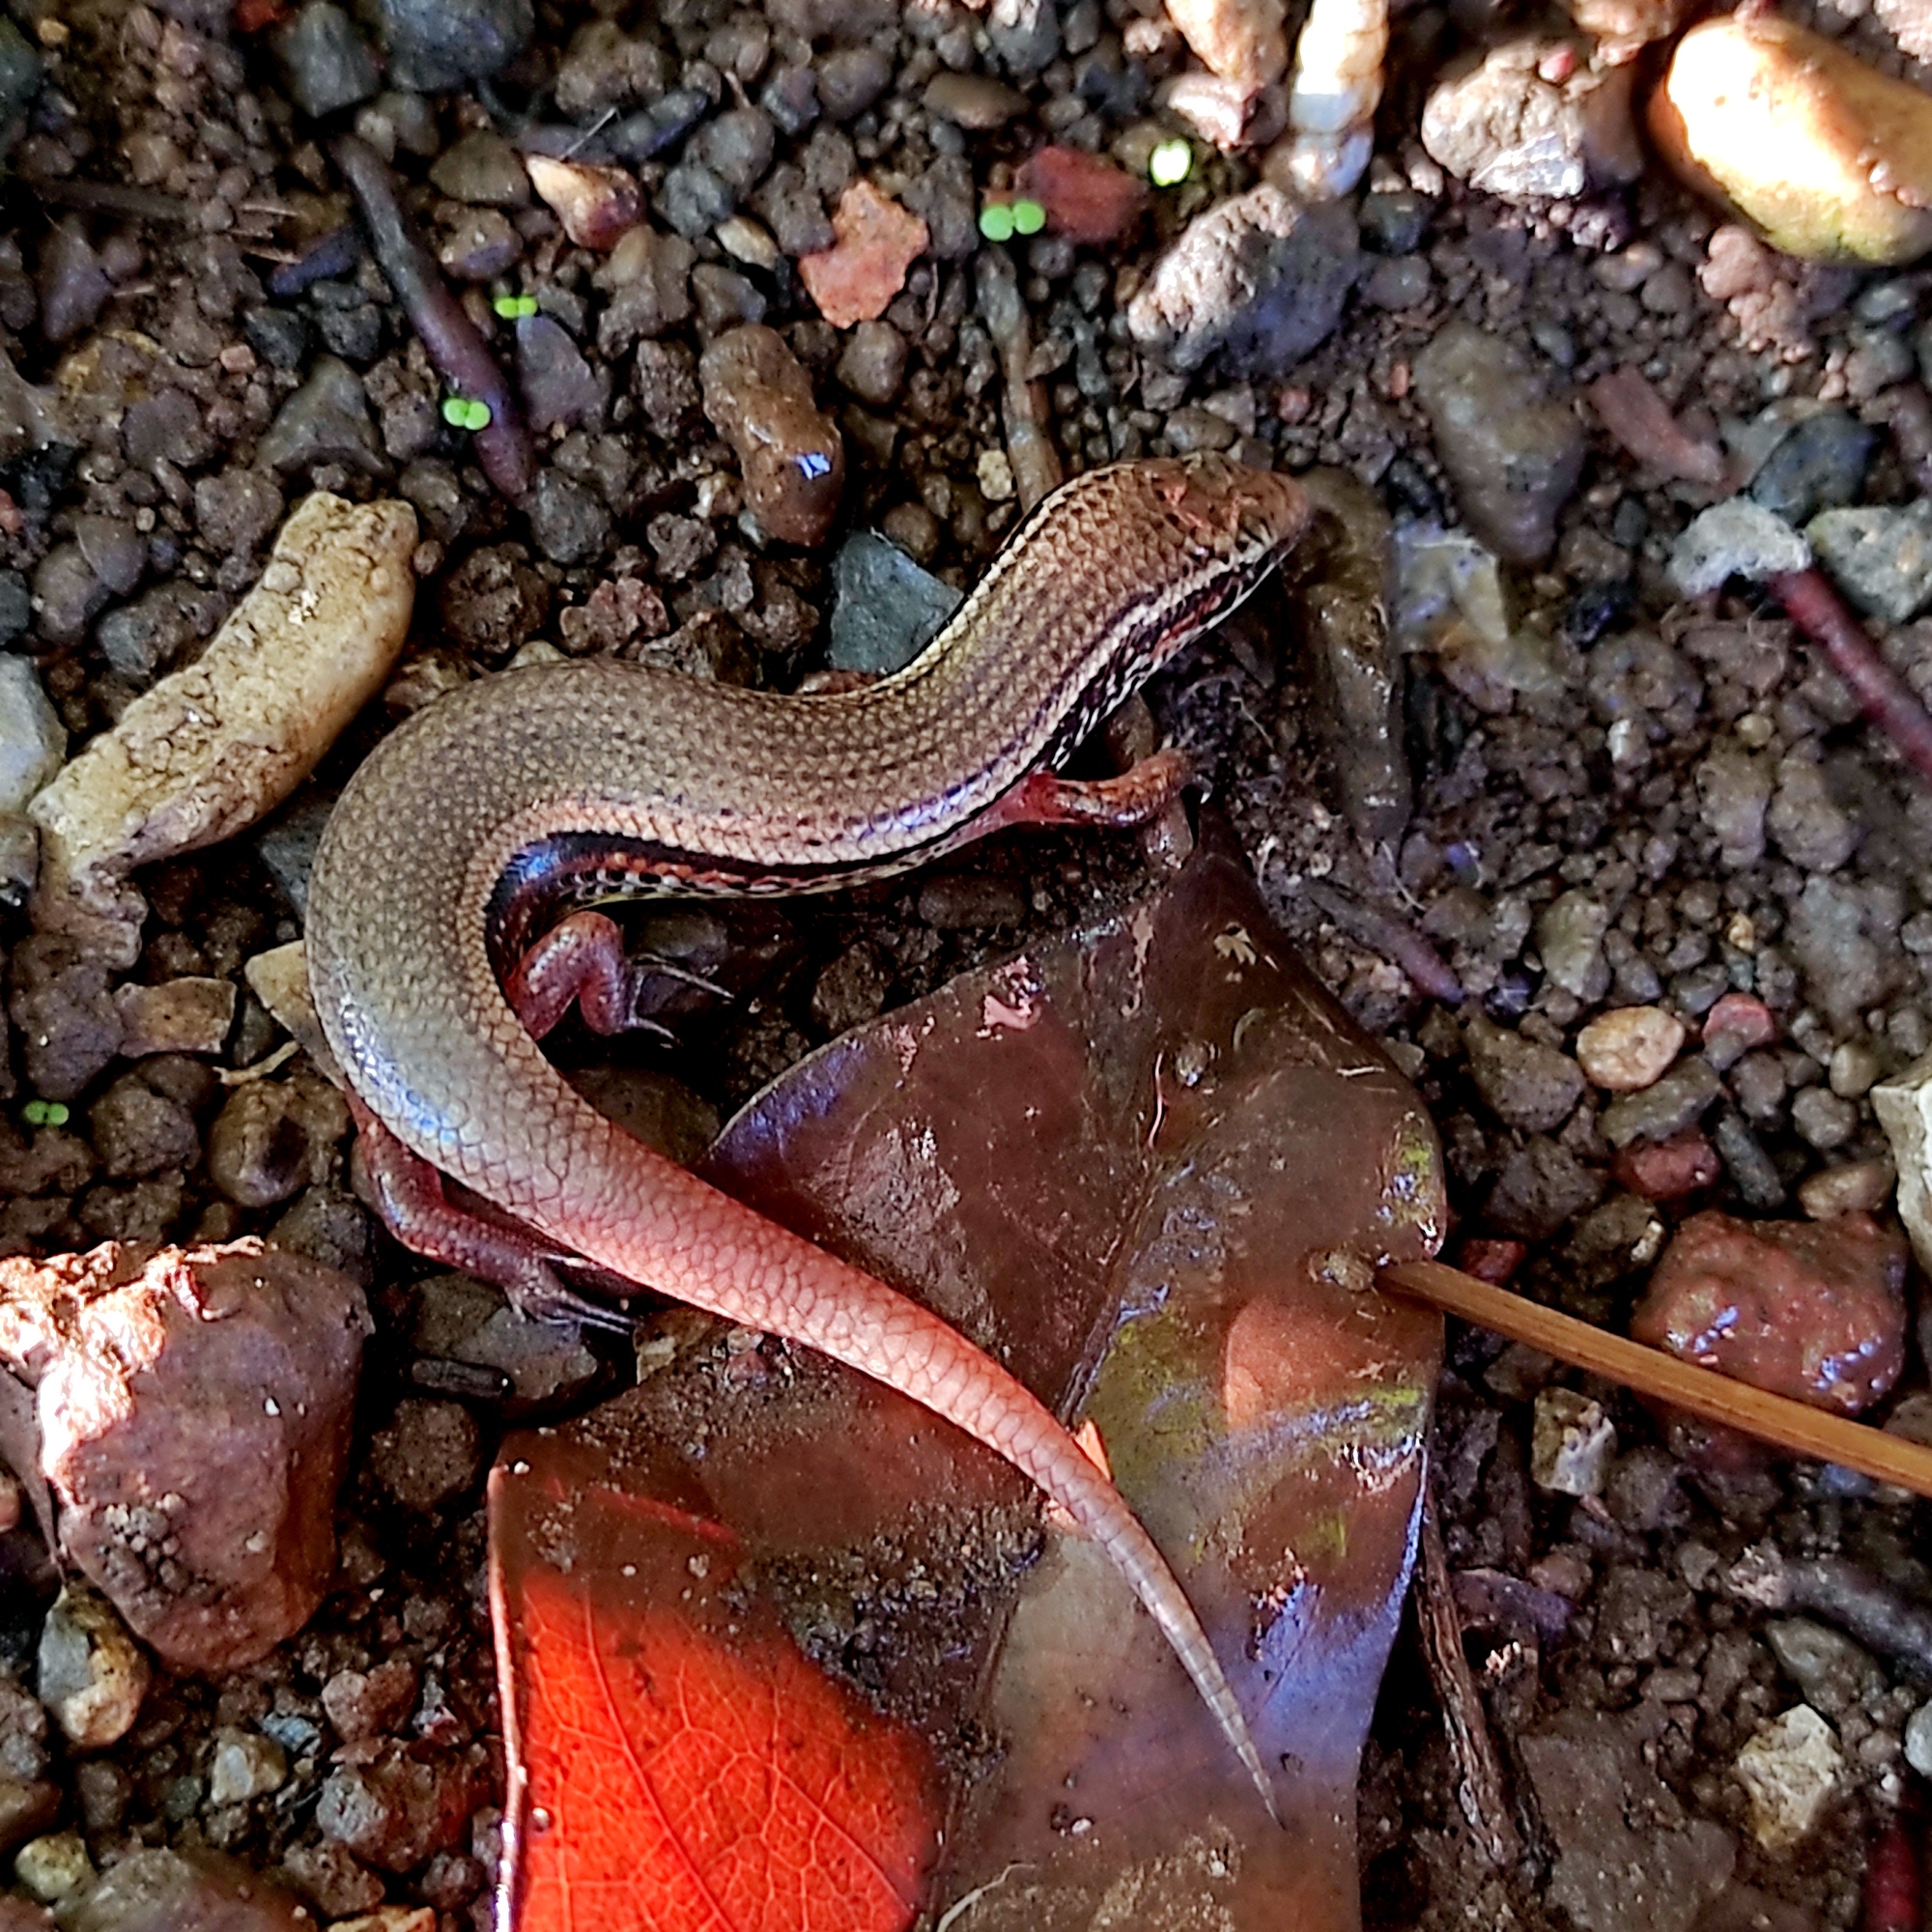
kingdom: Animalia
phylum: Chordata
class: Squamata
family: Scincidae
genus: Subdoluseps
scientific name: Subdoluseps bowringii
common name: Christmas island grass-skink
